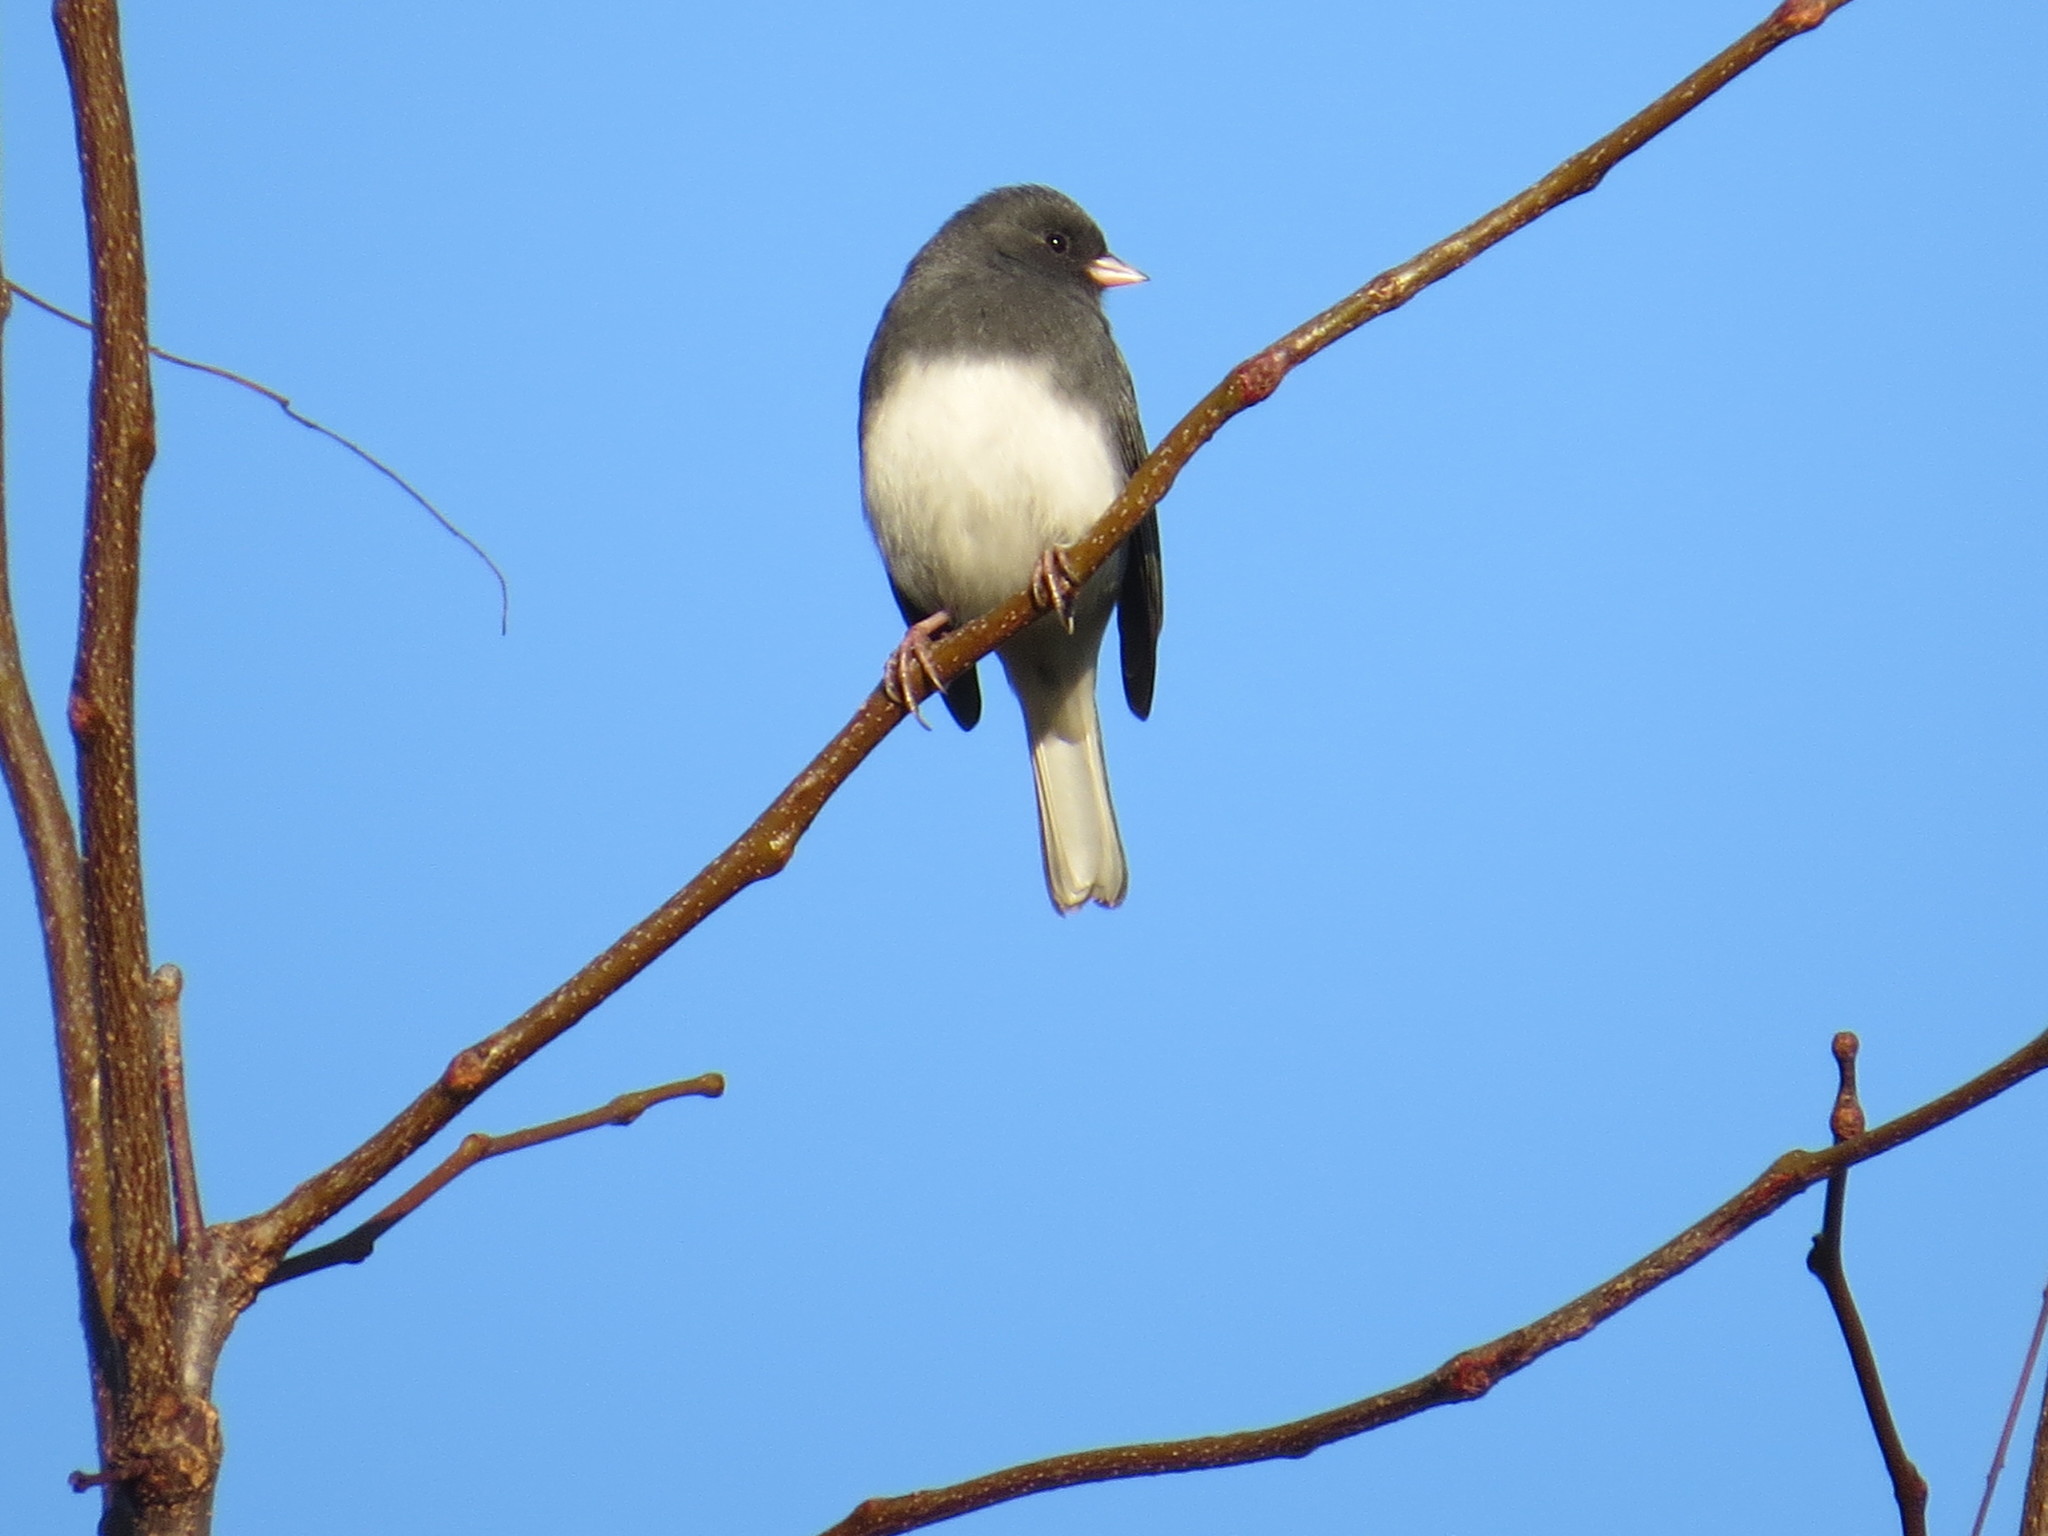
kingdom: Animalia
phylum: Chordata
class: Aves
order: Passeriformes
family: Passerellidae
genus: Junco
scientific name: Junco hyemalis
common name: Dark-eyed junco
